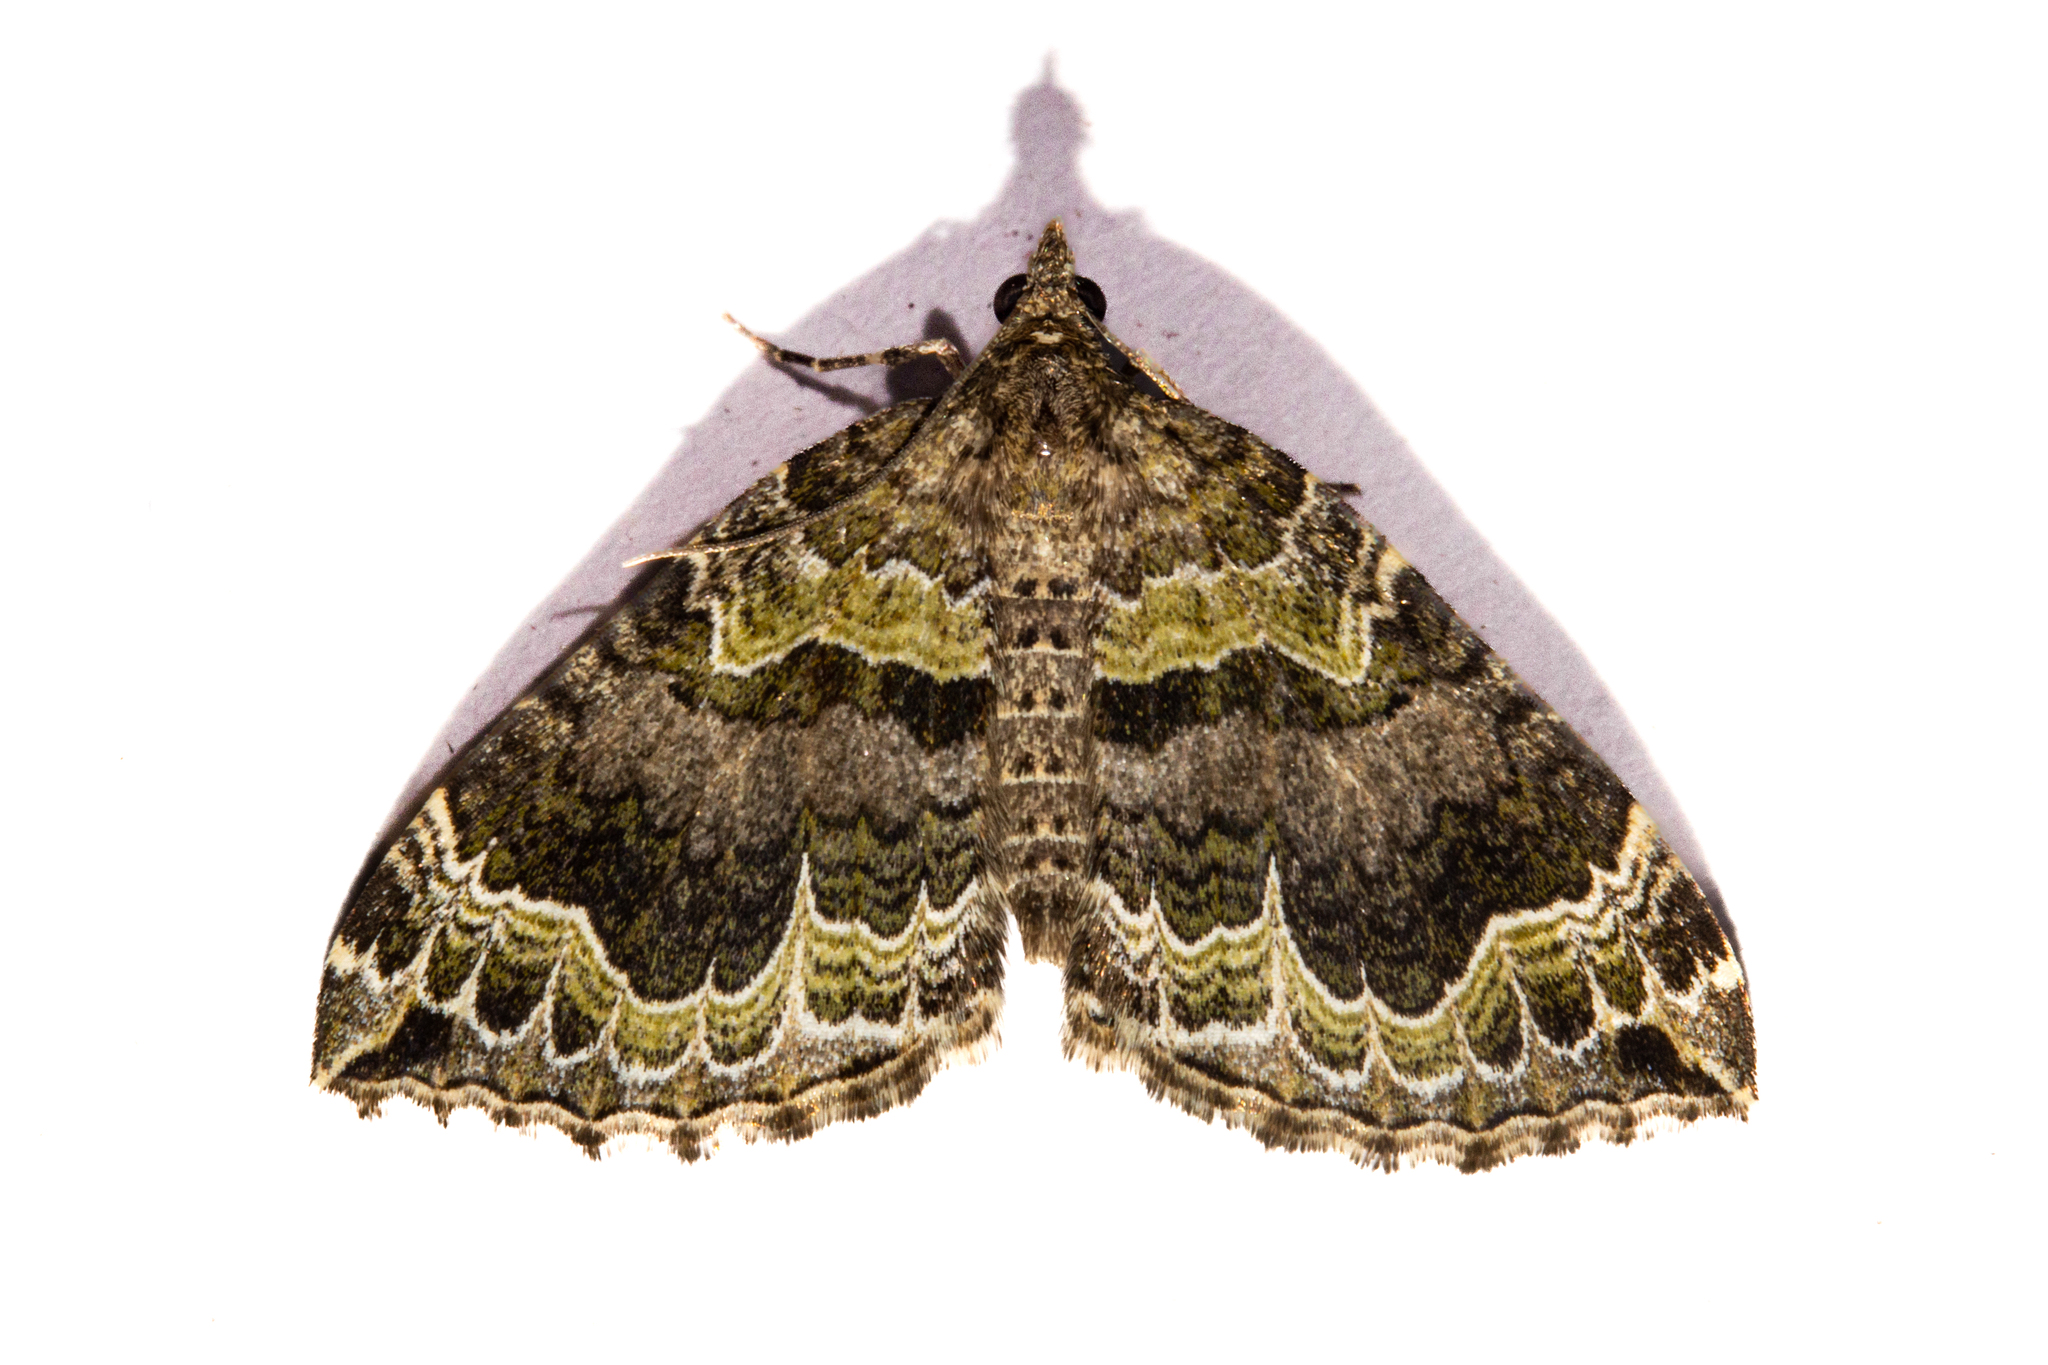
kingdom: Animalia
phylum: Arthropoda
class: Insecta
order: Lepidoptera
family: Geometridae
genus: Hydriomena
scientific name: Hydriomena rixata
